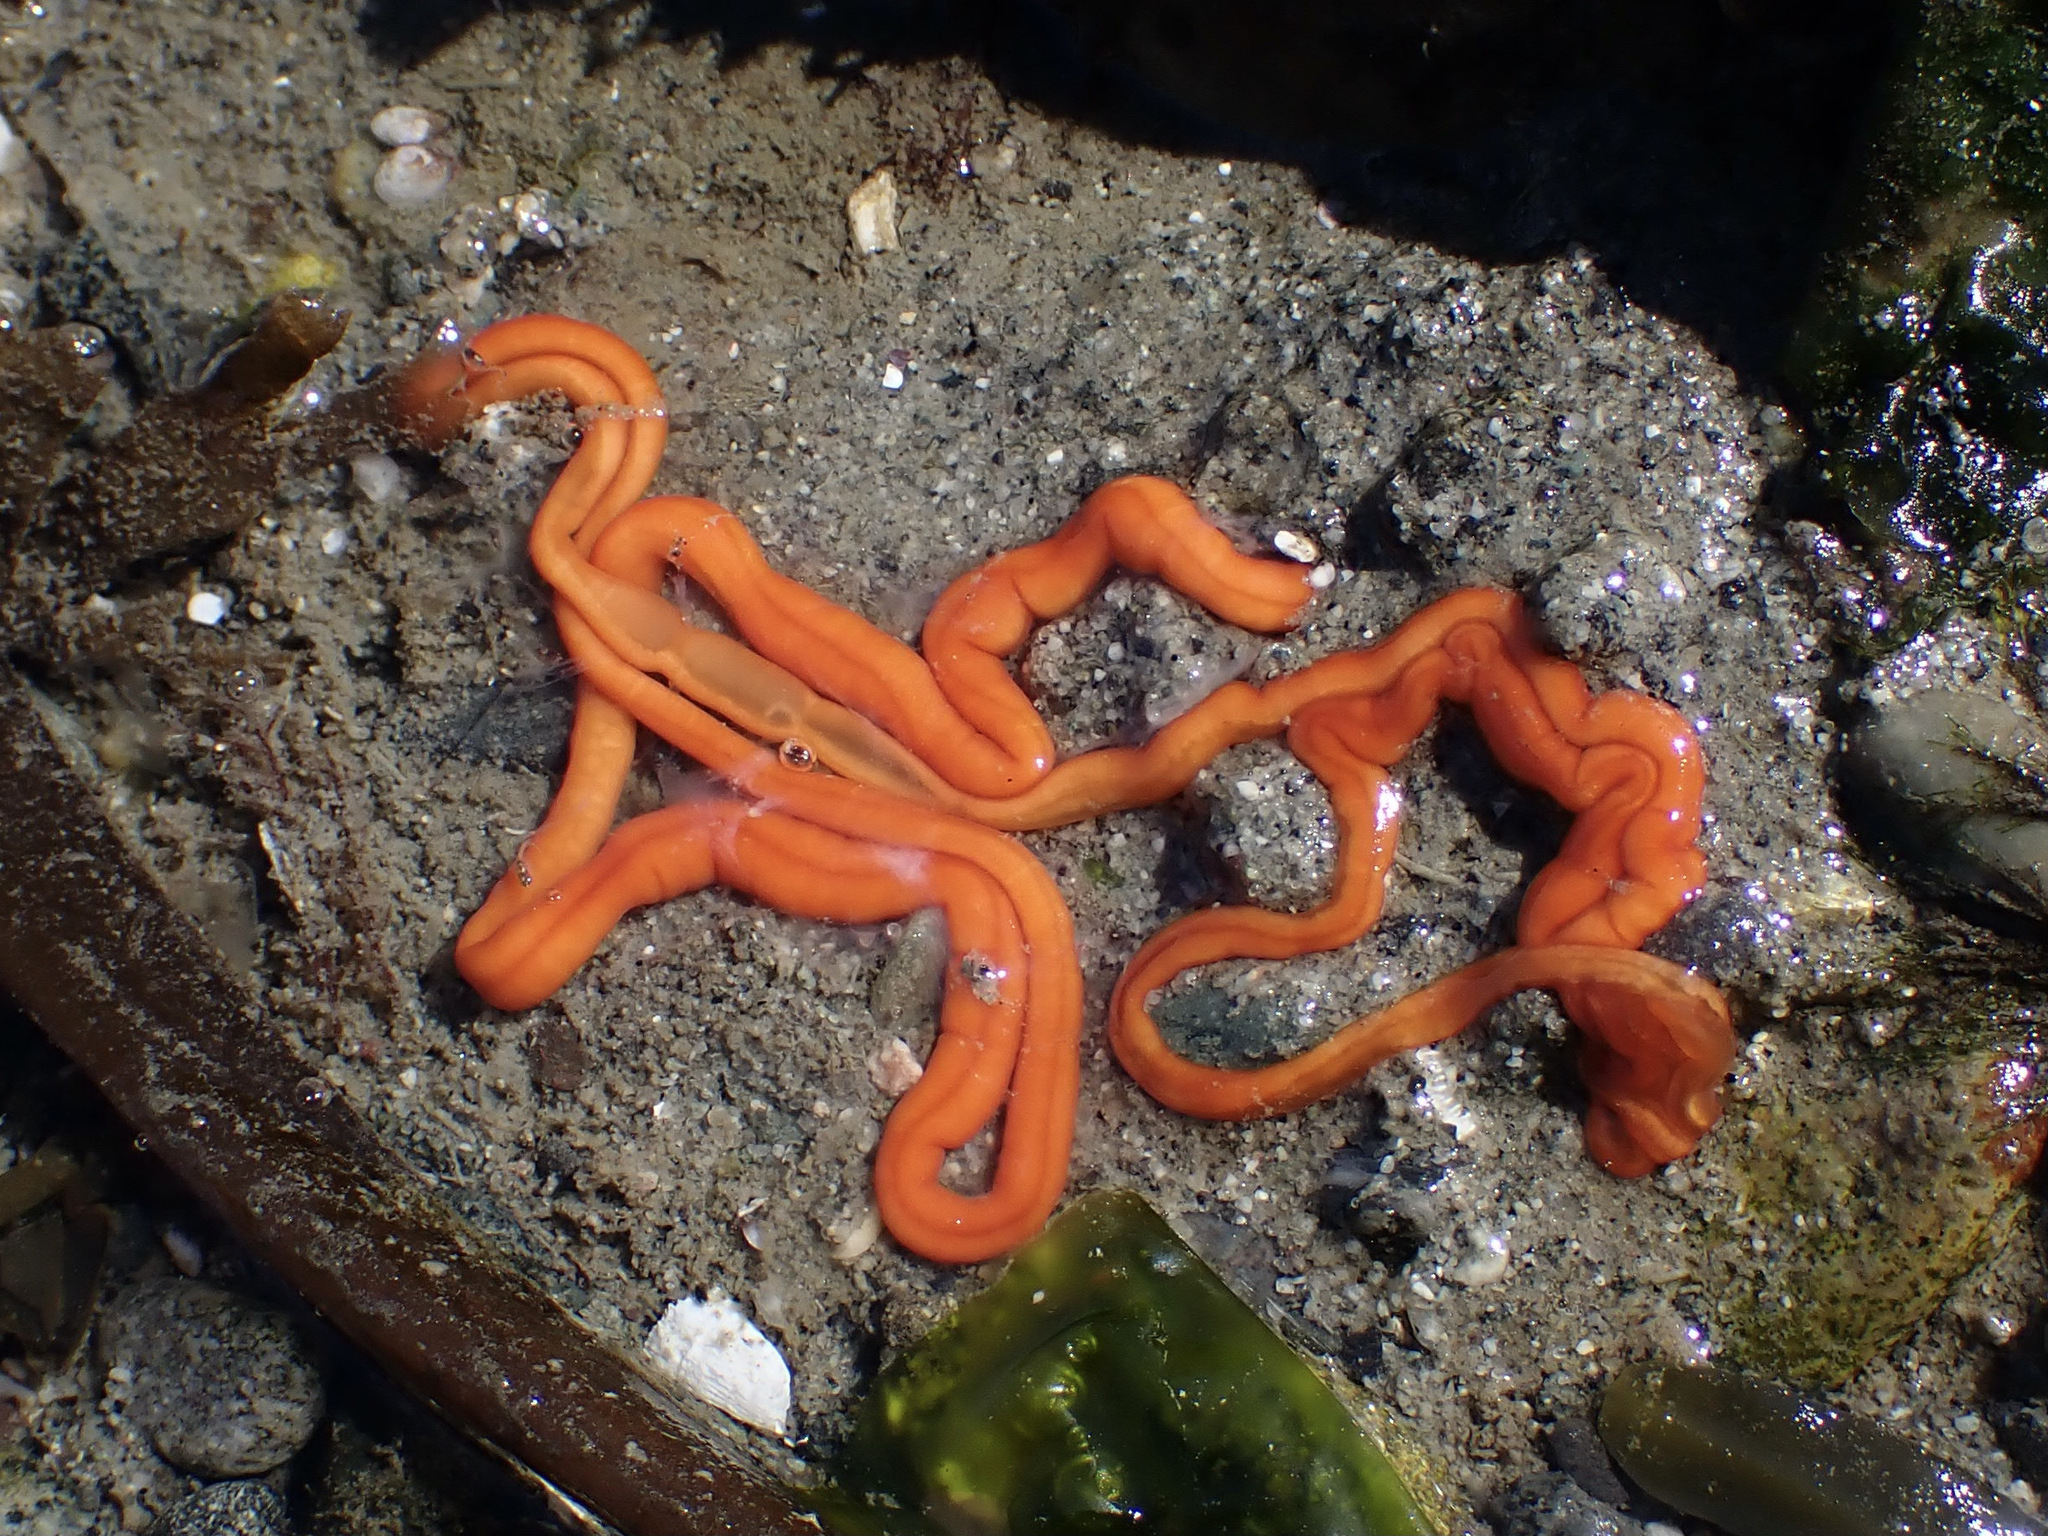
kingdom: Animalia
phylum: Nemertea
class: Palaeonemertea
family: Tubulanidae
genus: Tubulanus
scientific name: Tubulanus polymorphus
